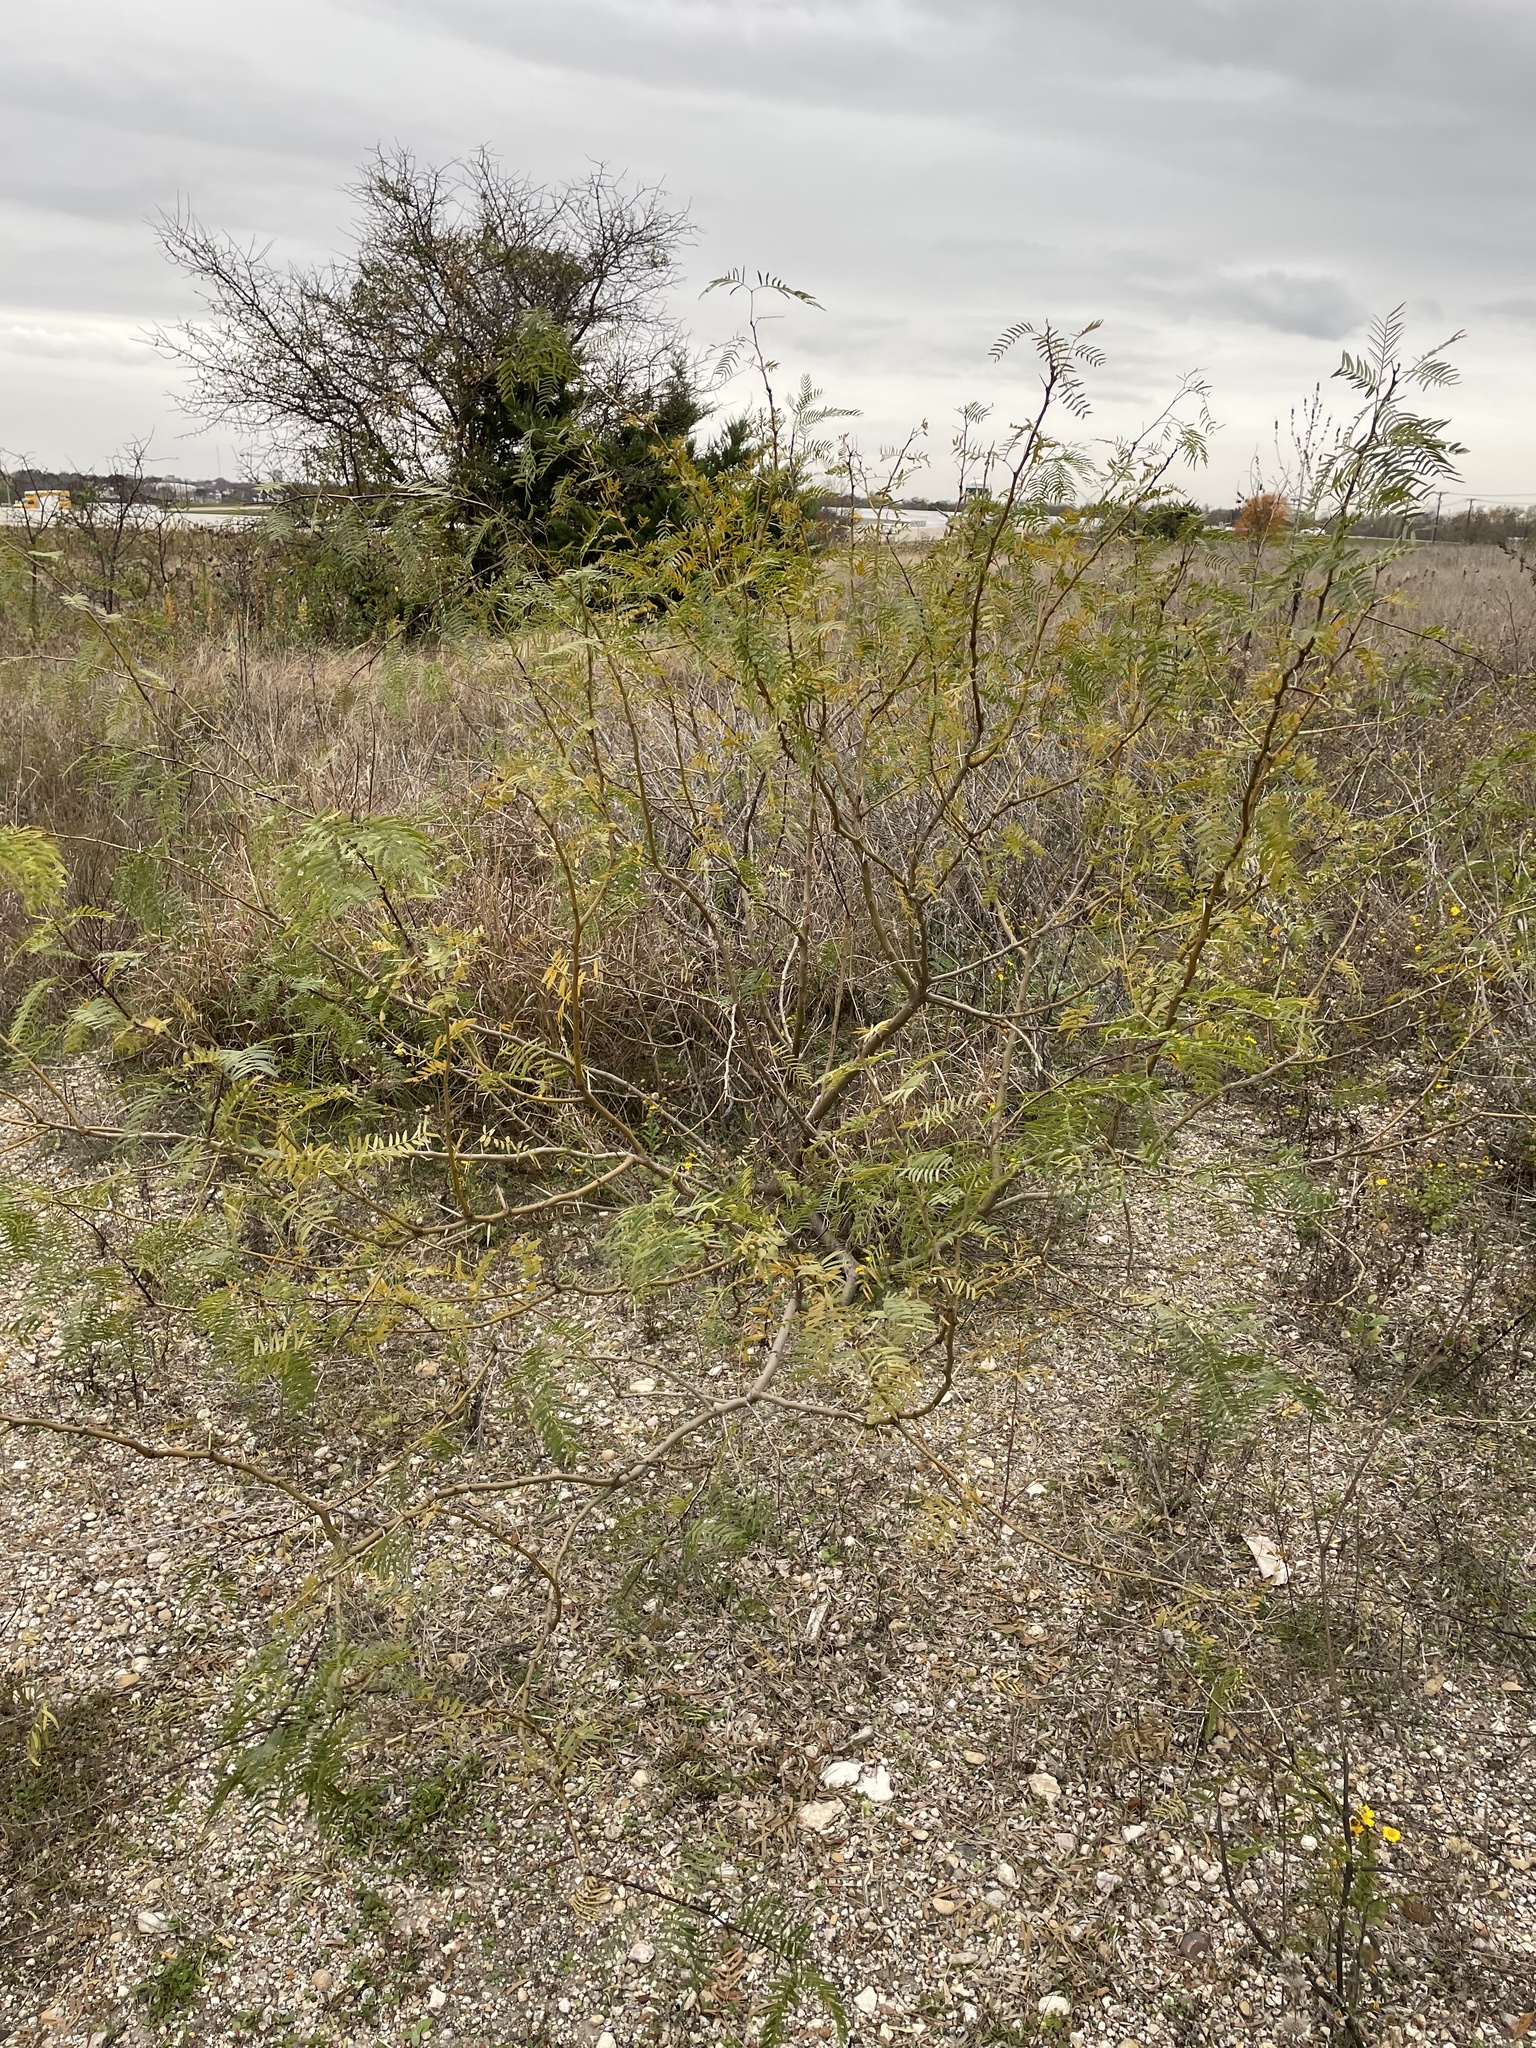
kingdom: Plantae
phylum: Tracheophyta
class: Magnoliopsida
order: Fabales
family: Fabaceae
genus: Prosopis
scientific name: Prosopis glandulosa
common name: Honey mesquite
